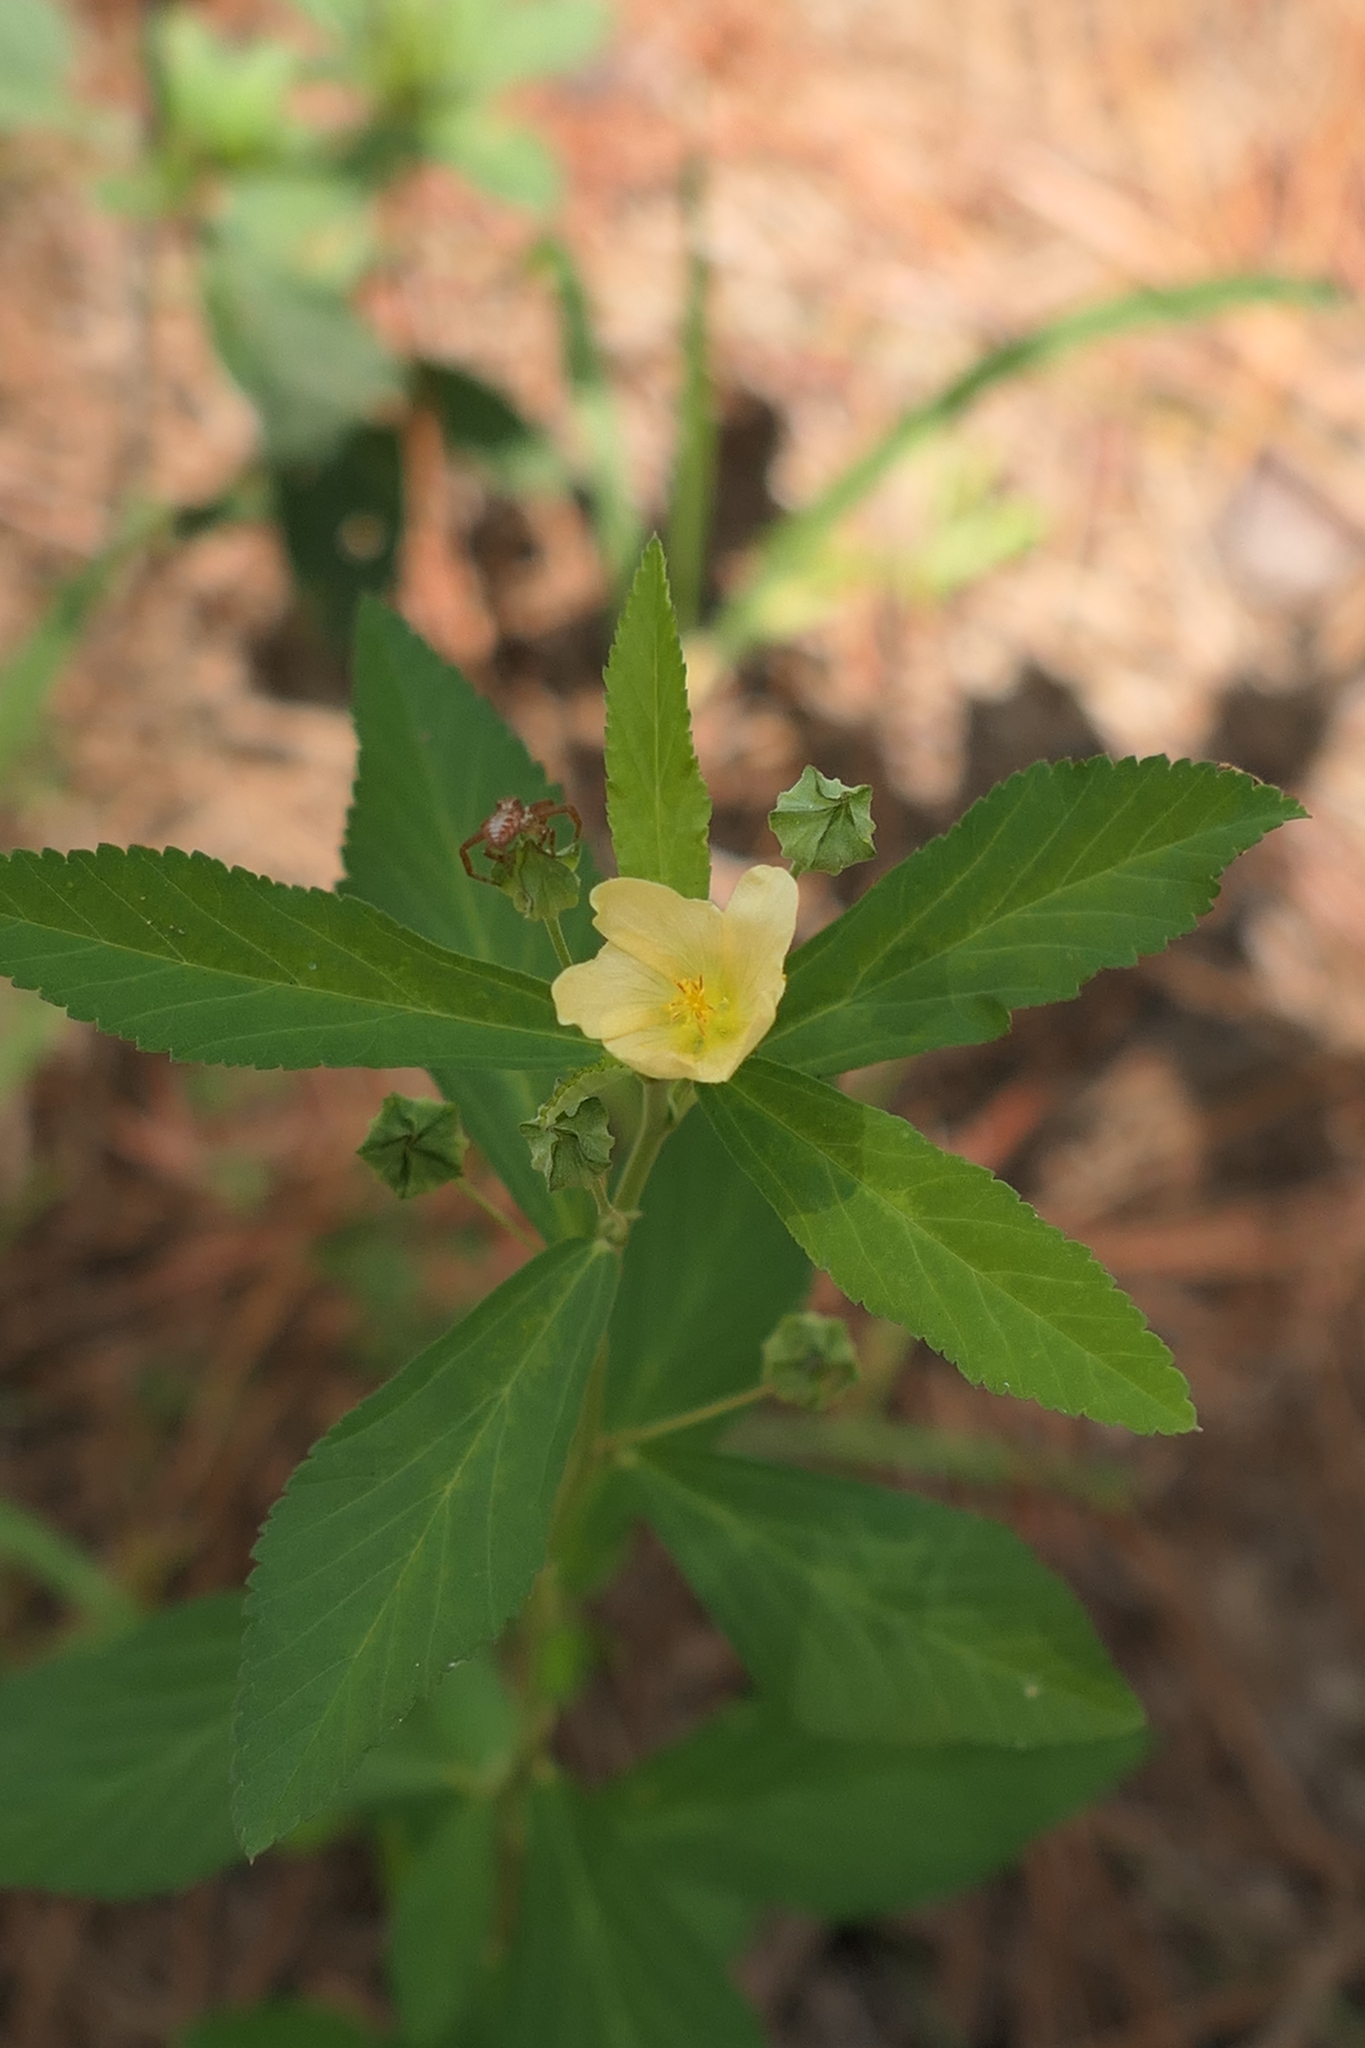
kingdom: Plantae
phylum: Tracheophyta
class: Magnoliopsida
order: Malvales
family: Malvaceae
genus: Sida
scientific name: Sida rhombifolia
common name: Queensland-hemp
